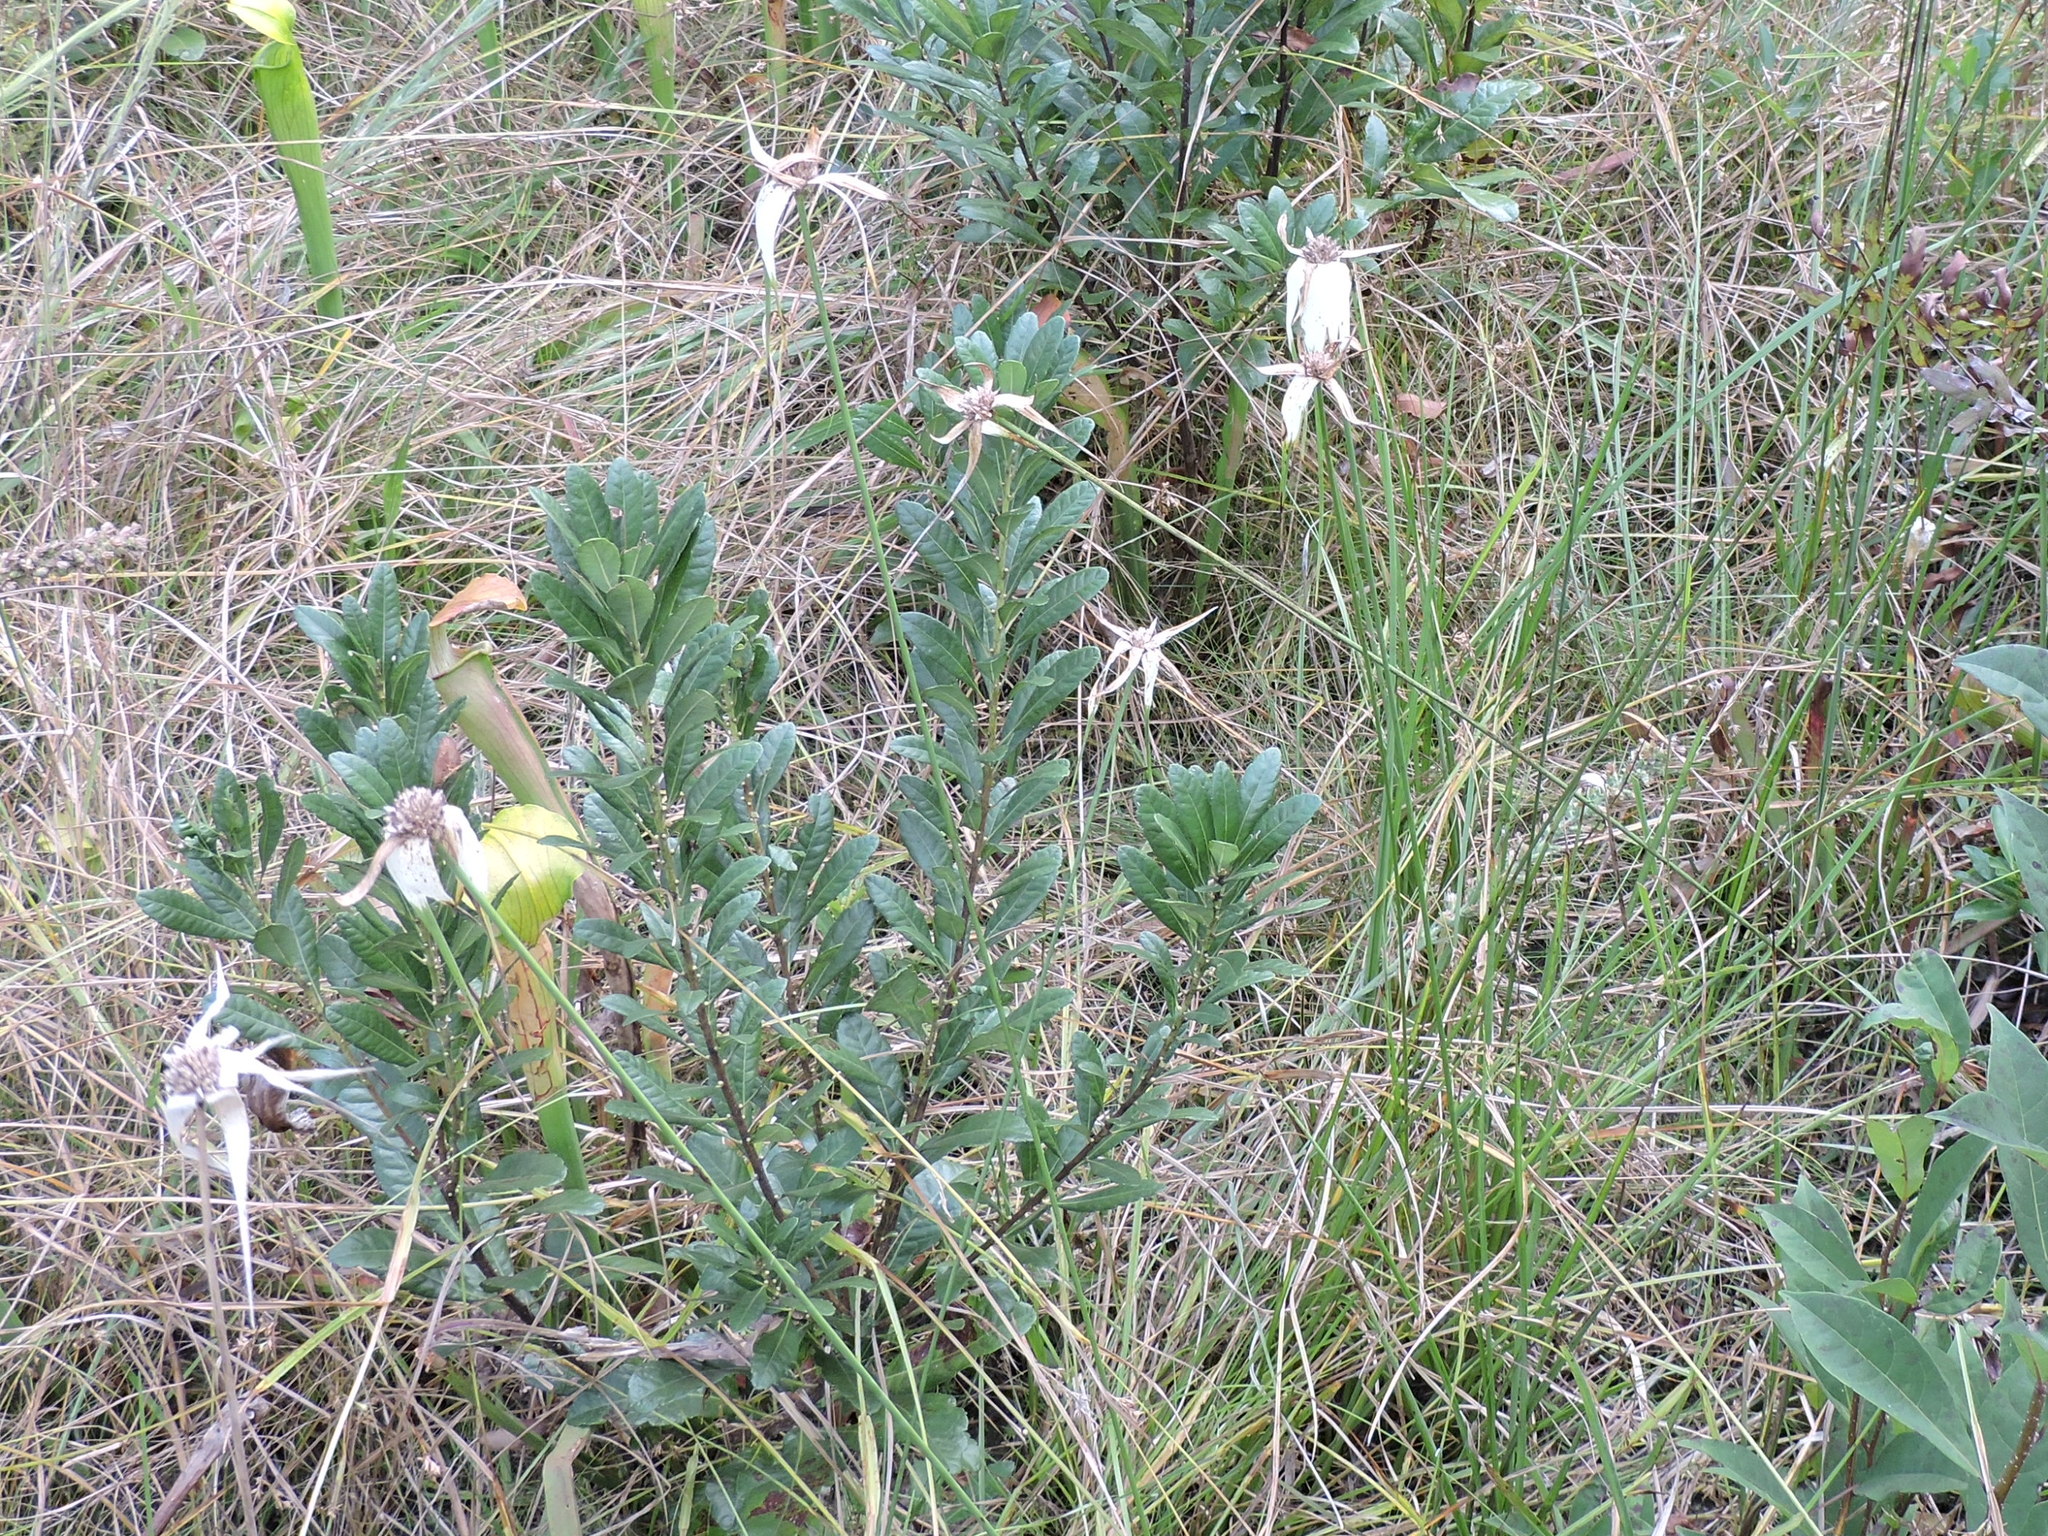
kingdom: Plantae
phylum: Tracheophyta
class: Liliopsida
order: Poales
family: Cyperaceae
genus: Rhynchospora
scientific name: Rhynchospora latifolia
